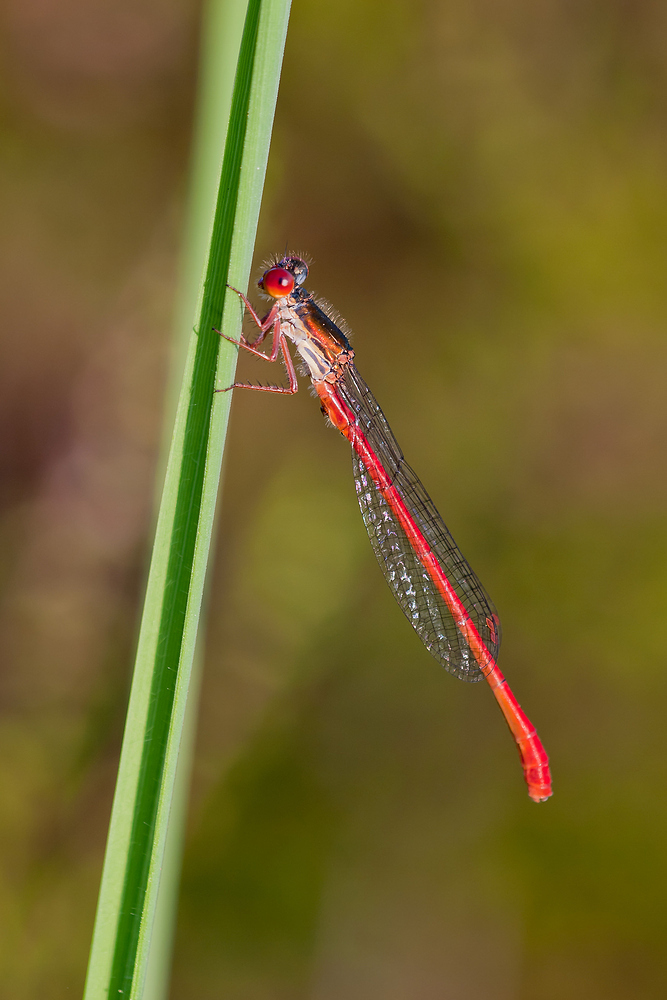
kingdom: Animalia
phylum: Arthropoda
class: Insecta
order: Odonata
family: Coenagrionidae
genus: Ceriagrion
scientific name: Ceriagrion tenellum
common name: Small red damselfly
